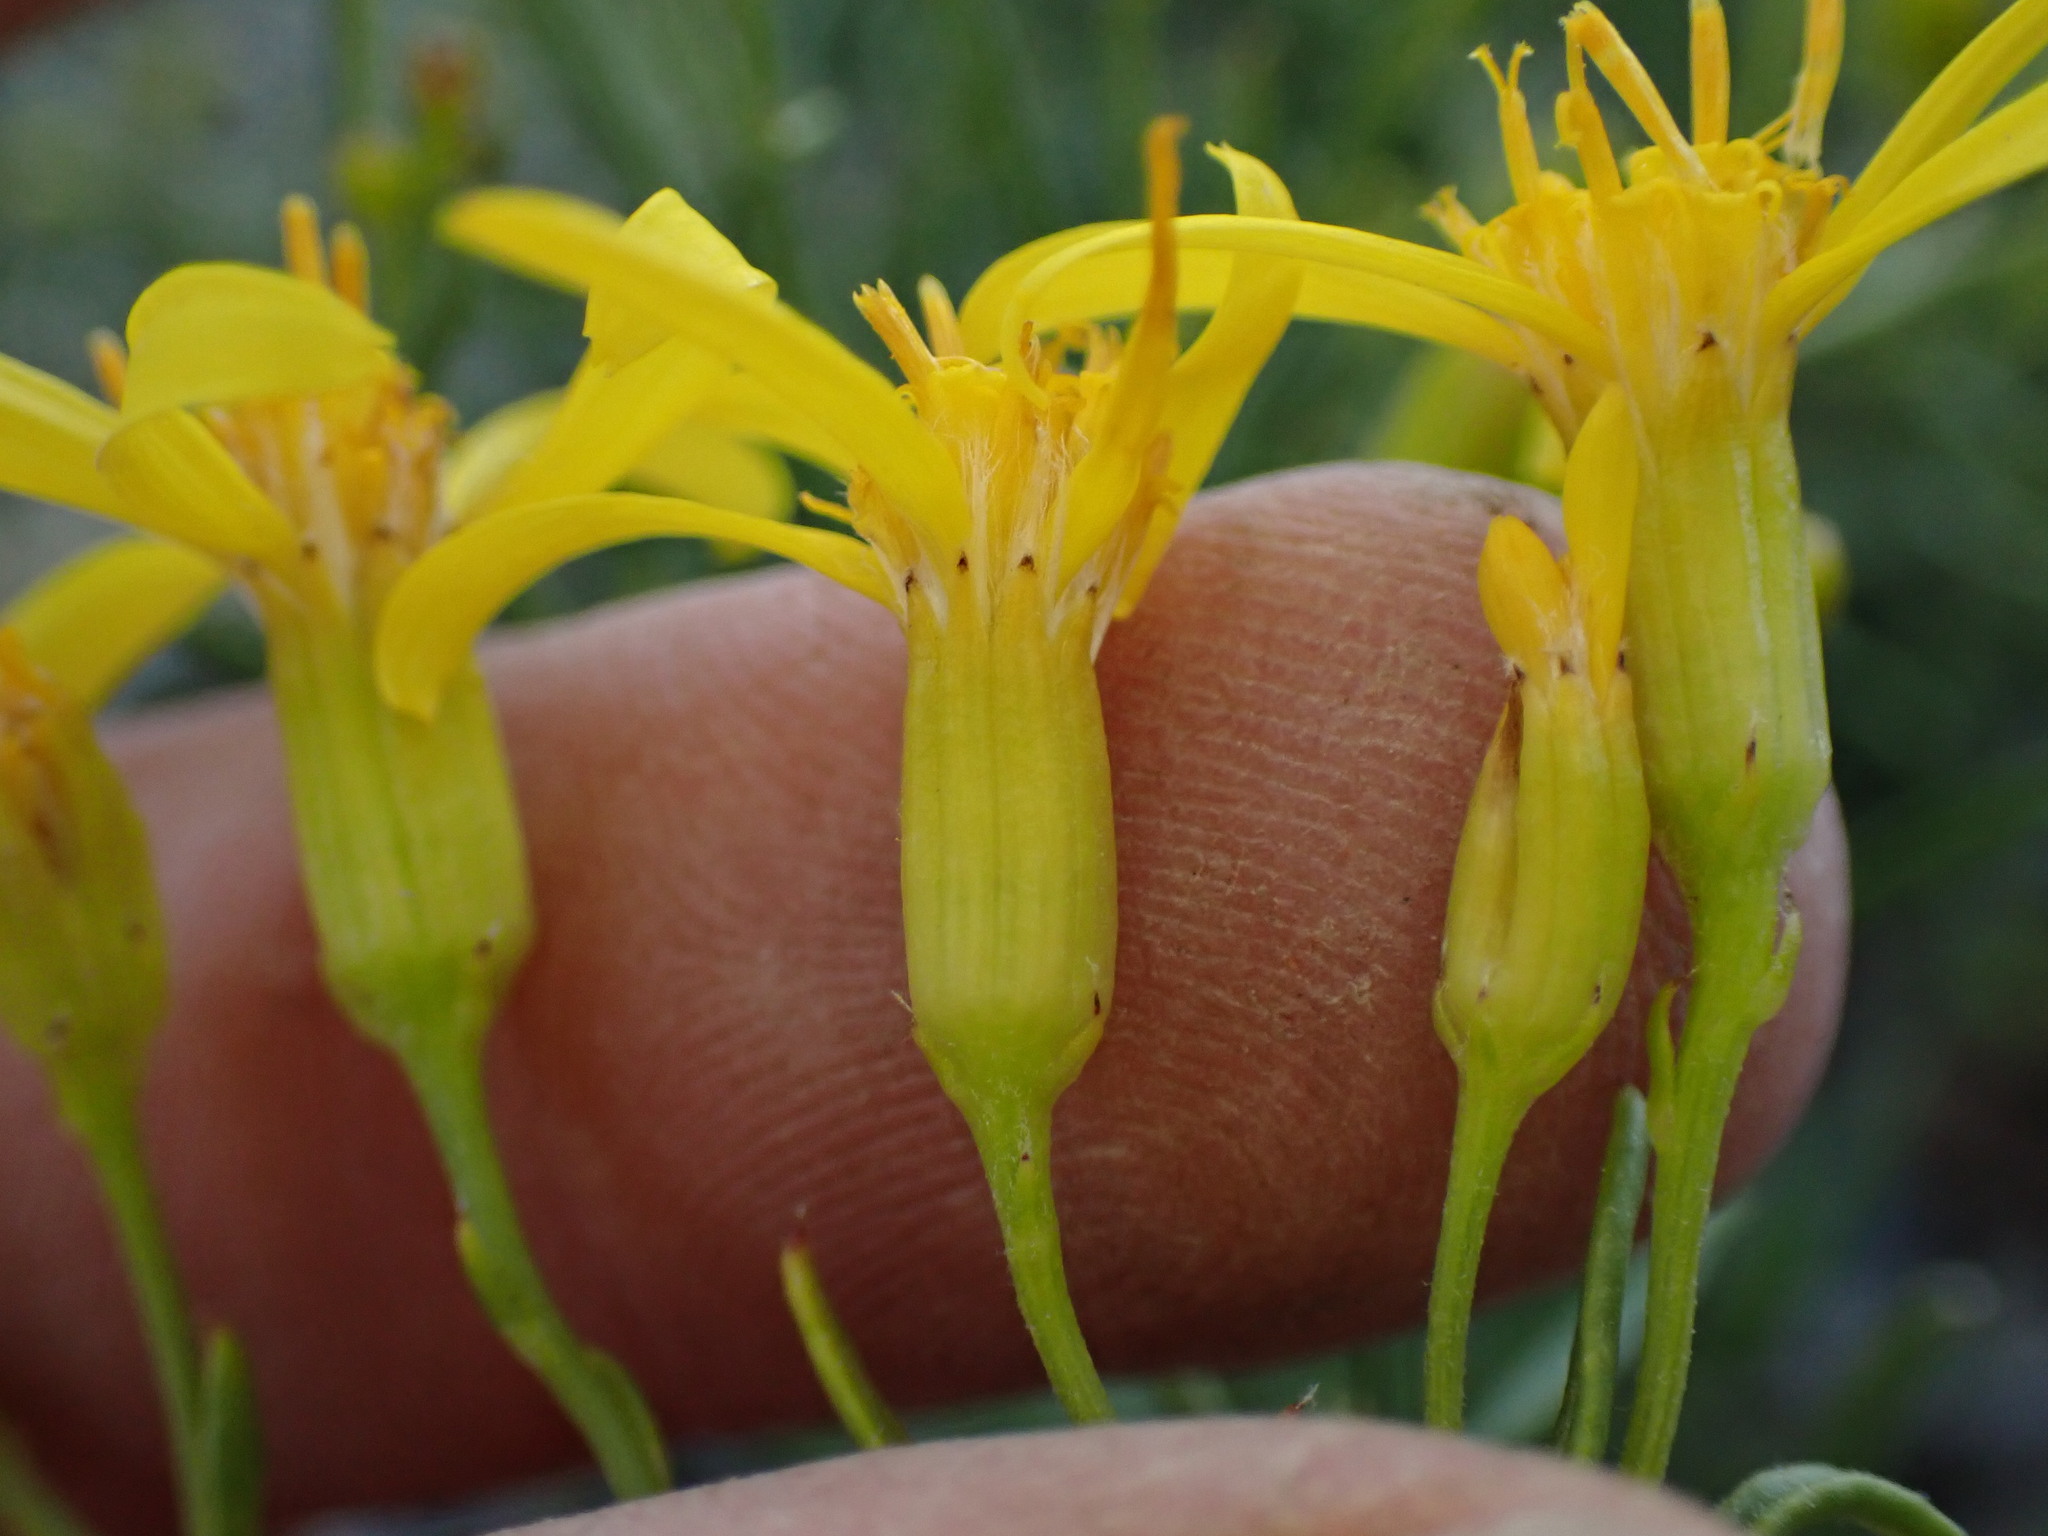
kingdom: Plantae
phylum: Tracheophyta
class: Magnoliopsida
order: Asterales
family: Asteraceae
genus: Senecio
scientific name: Senecio spartioides
